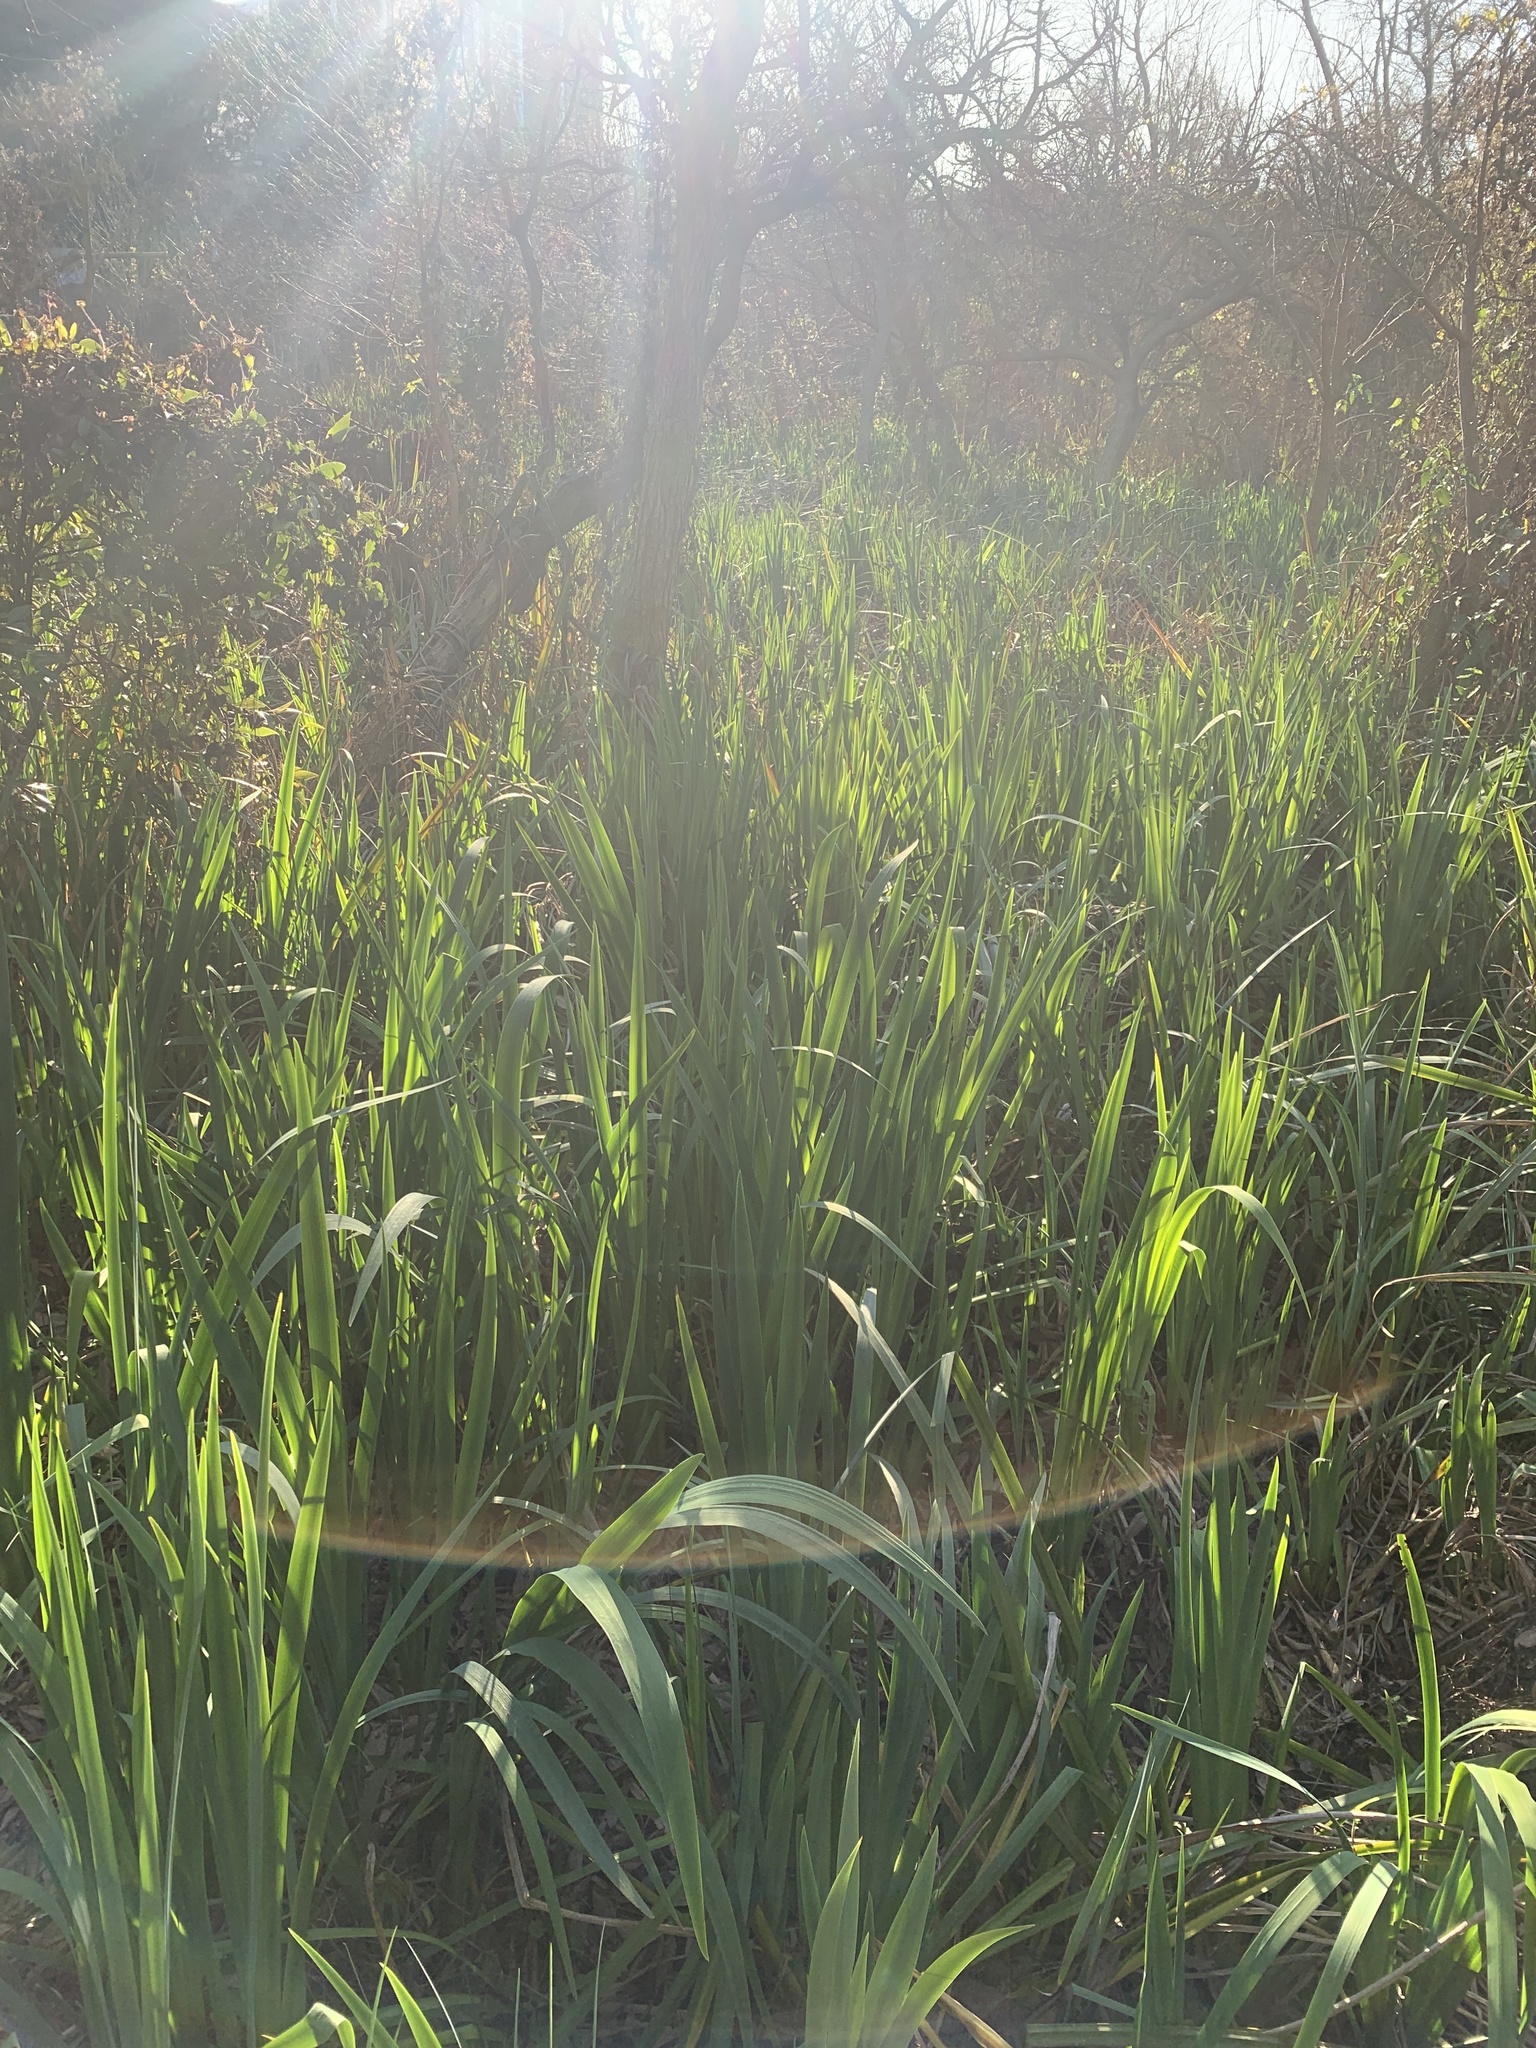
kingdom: Plantae
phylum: Tracheophyta
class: Liliopsida
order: Asparagales
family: Iridaceae
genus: Iris
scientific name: Iris pseudacorus
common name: Yellow flag
